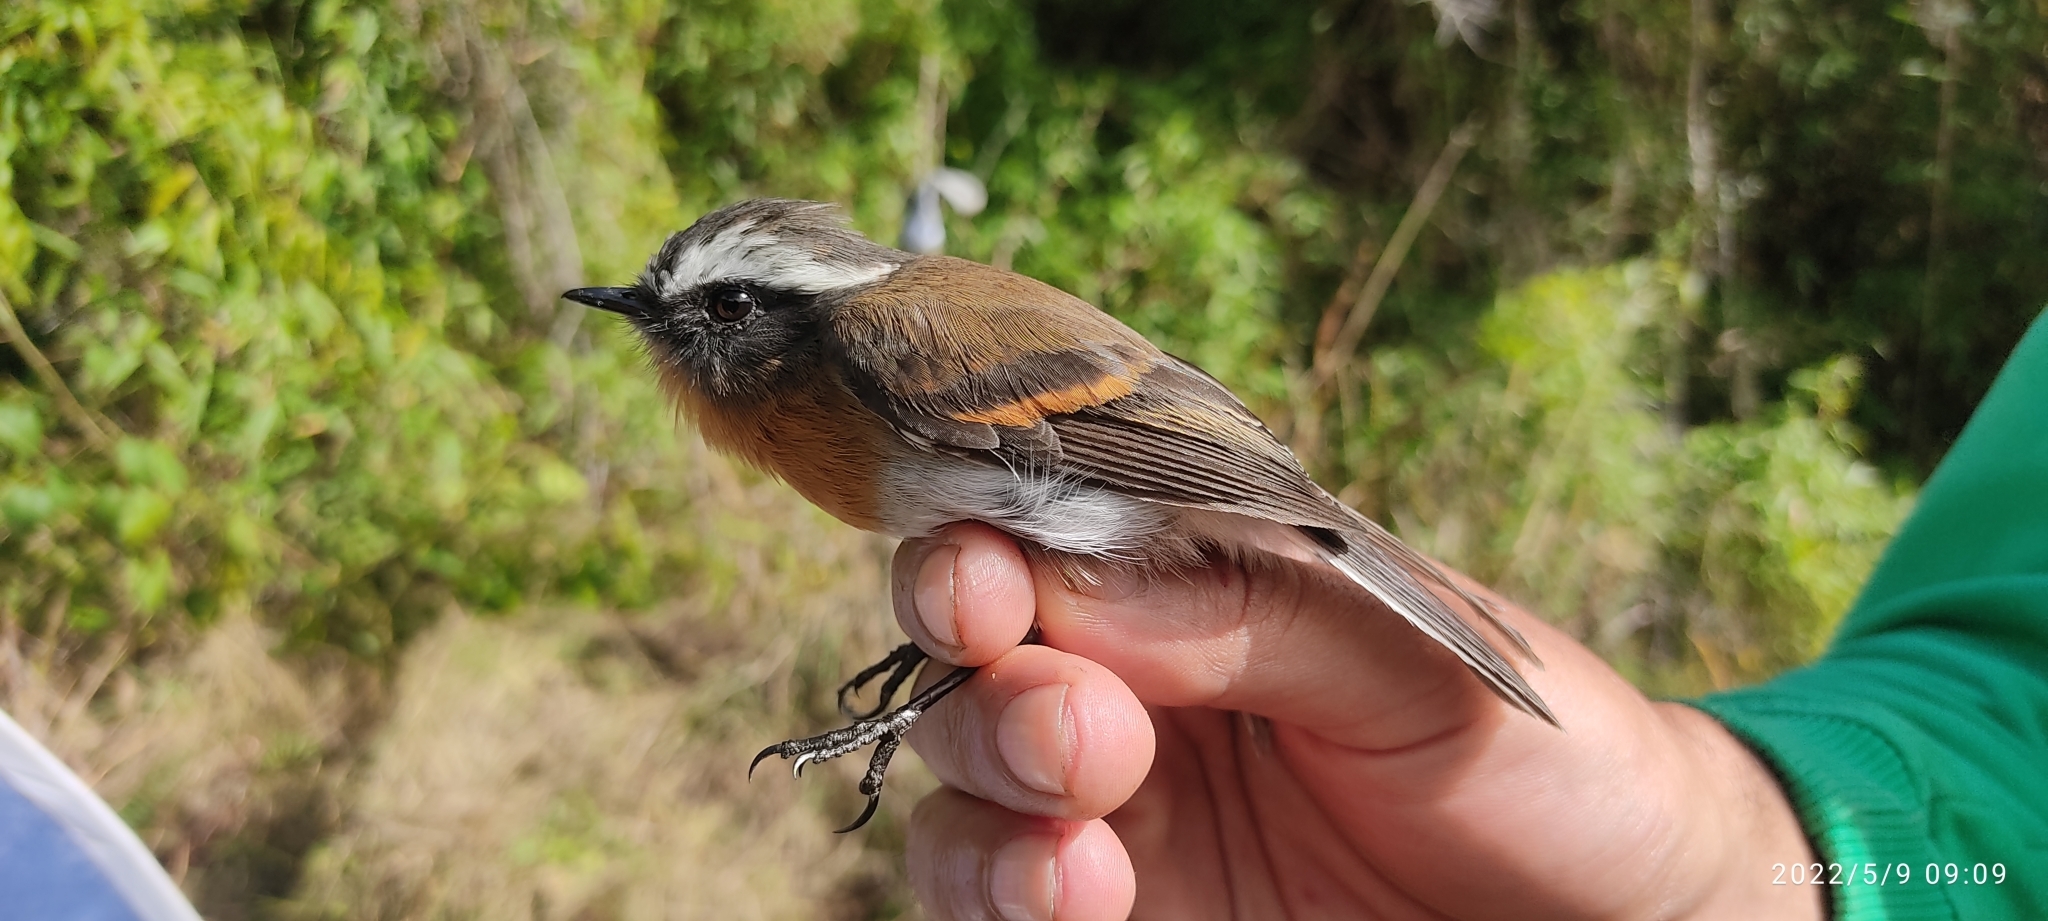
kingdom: Animalia
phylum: Chordata
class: Aves
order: Passeriformes
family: Tyrannidae
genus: Ochthoeca
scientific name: Ochthoeca rufipectoralis
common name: Rufous-breasted chat-tyrant
